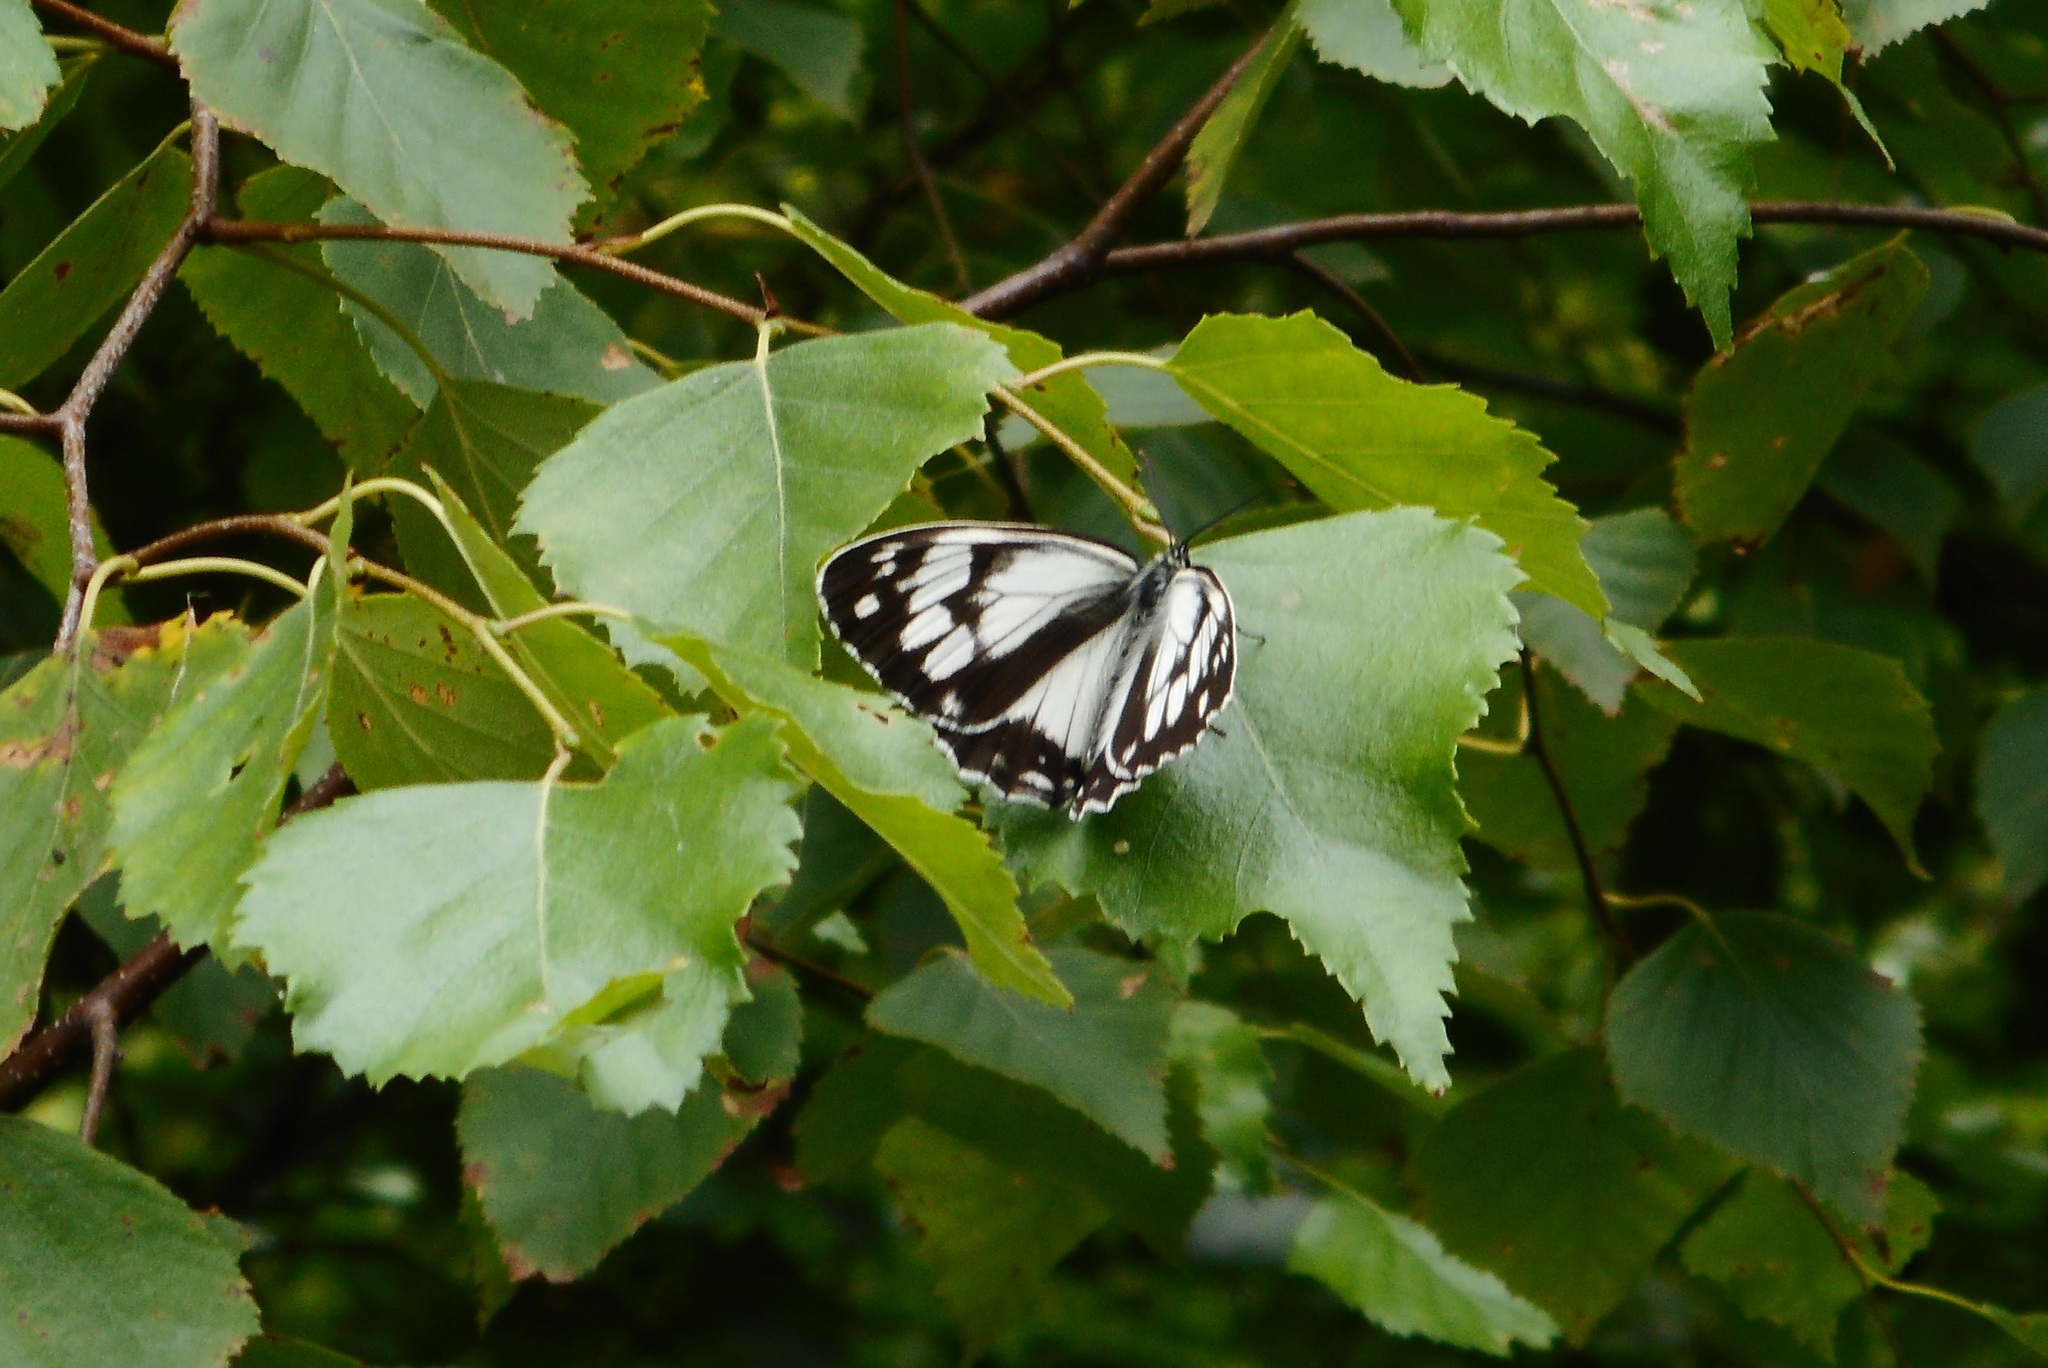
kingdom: Animalia
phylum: Arthropoda
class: Insecta
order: Lepidoptera
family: Nymphalidae
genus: Melanargia
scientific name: Melanargia halimede
